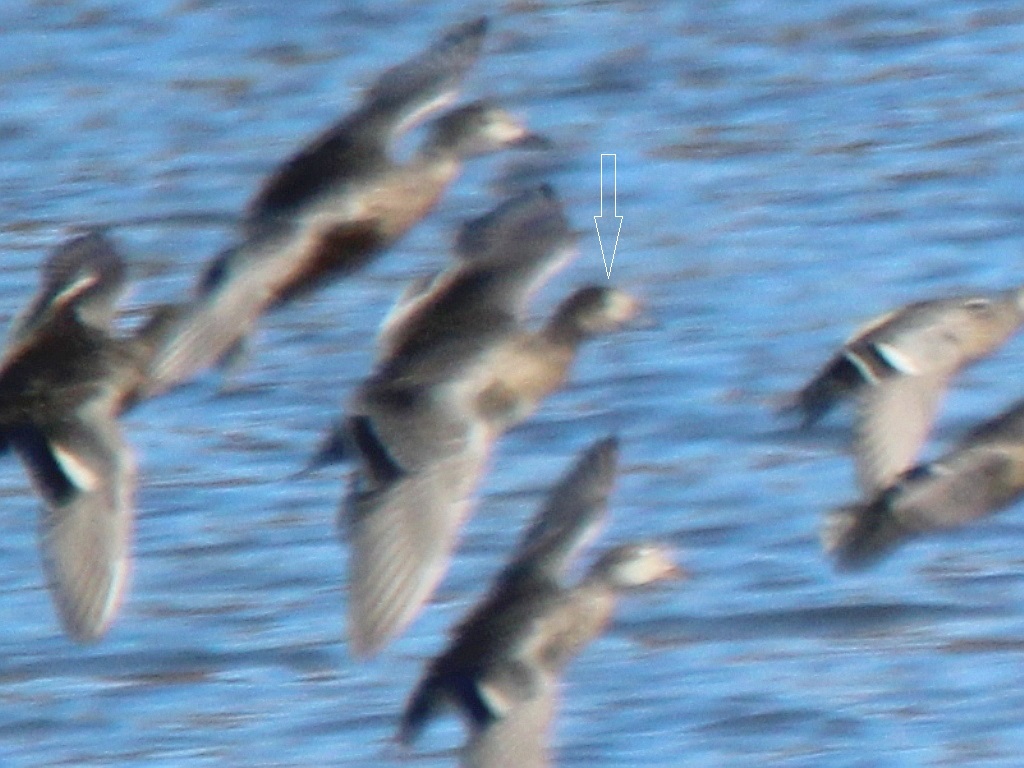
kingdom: Animalia
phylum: Chordata
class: Aves
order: Anseriformes
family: Anatidae
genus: Mareca
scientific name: Mareca americana
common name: American wigeon
